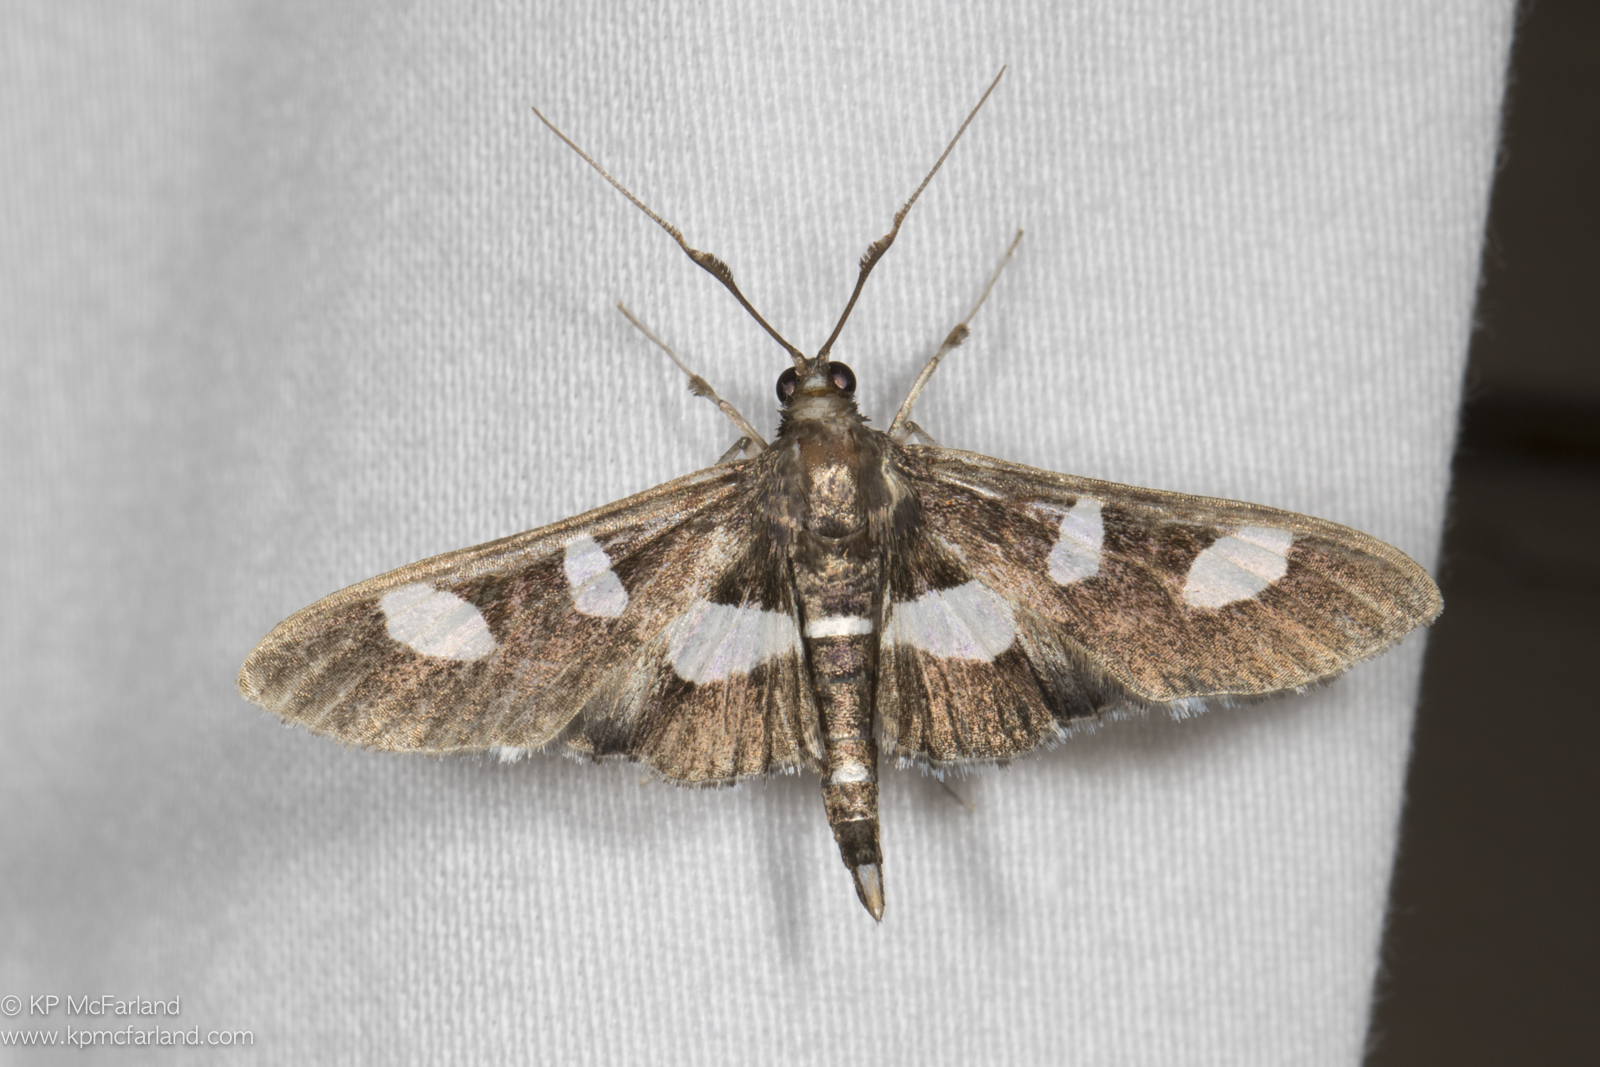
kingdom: Animalia
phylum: Arthropoda
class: Insecta
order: Lepidoptera
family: Crambidae
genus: Desmia
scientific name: Desmia
